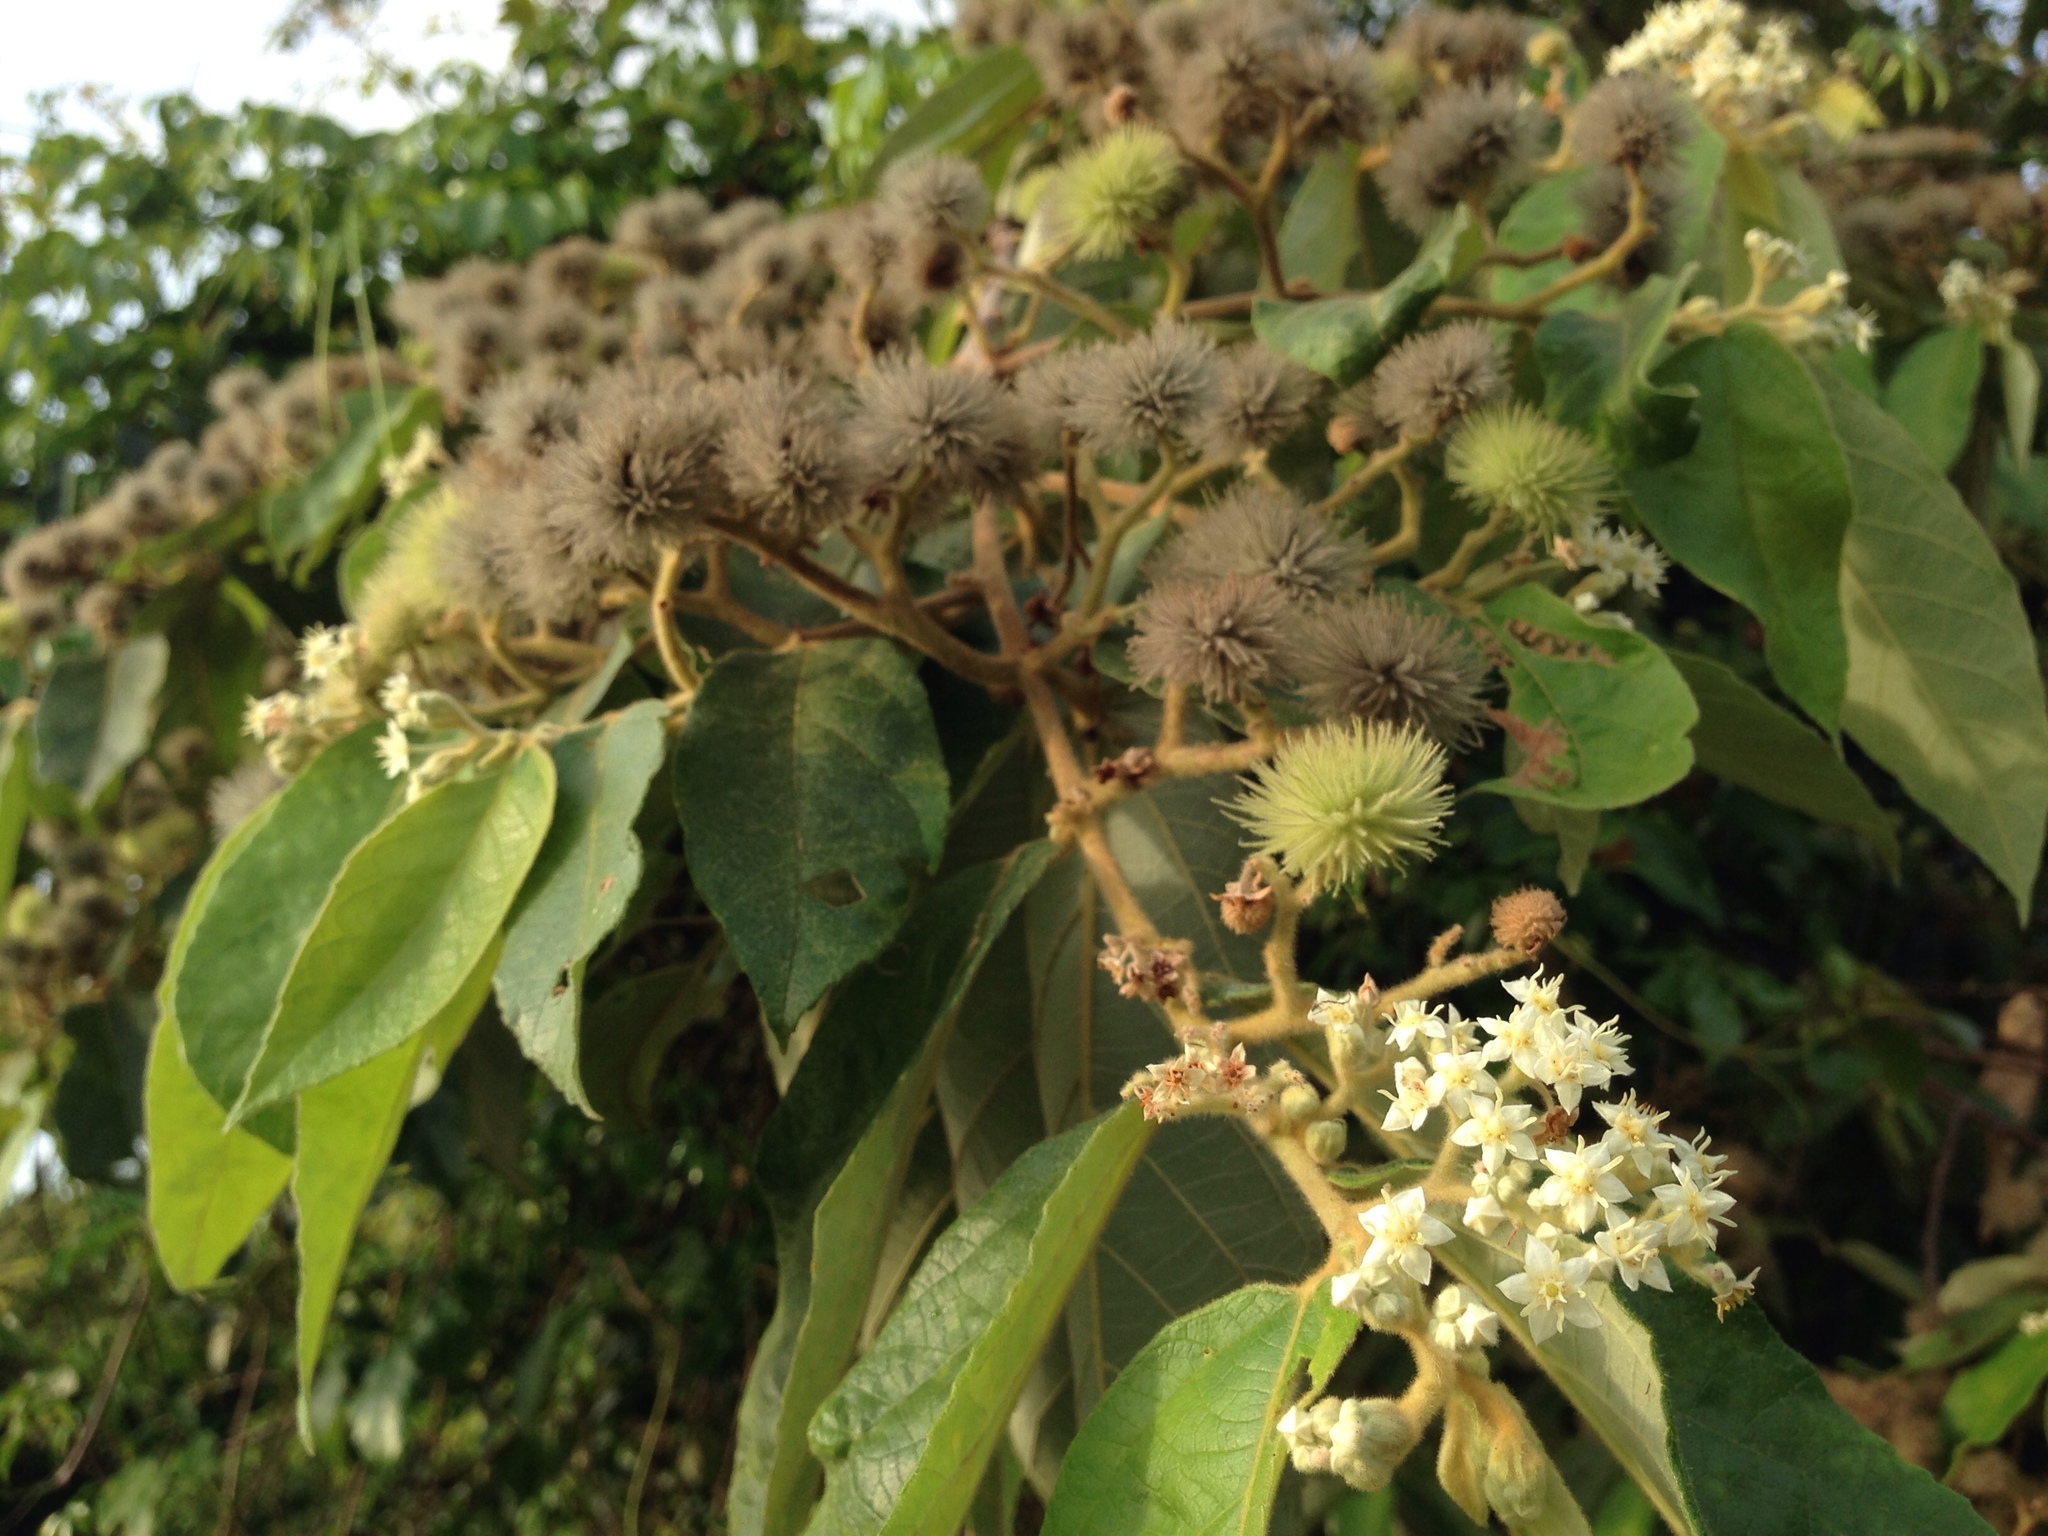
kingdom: Plantae
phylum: Tracheophyta
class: Magnoliopsida
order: Malvales
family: Malvaceae
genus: Commersonia
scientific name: Commersonia bartramia
